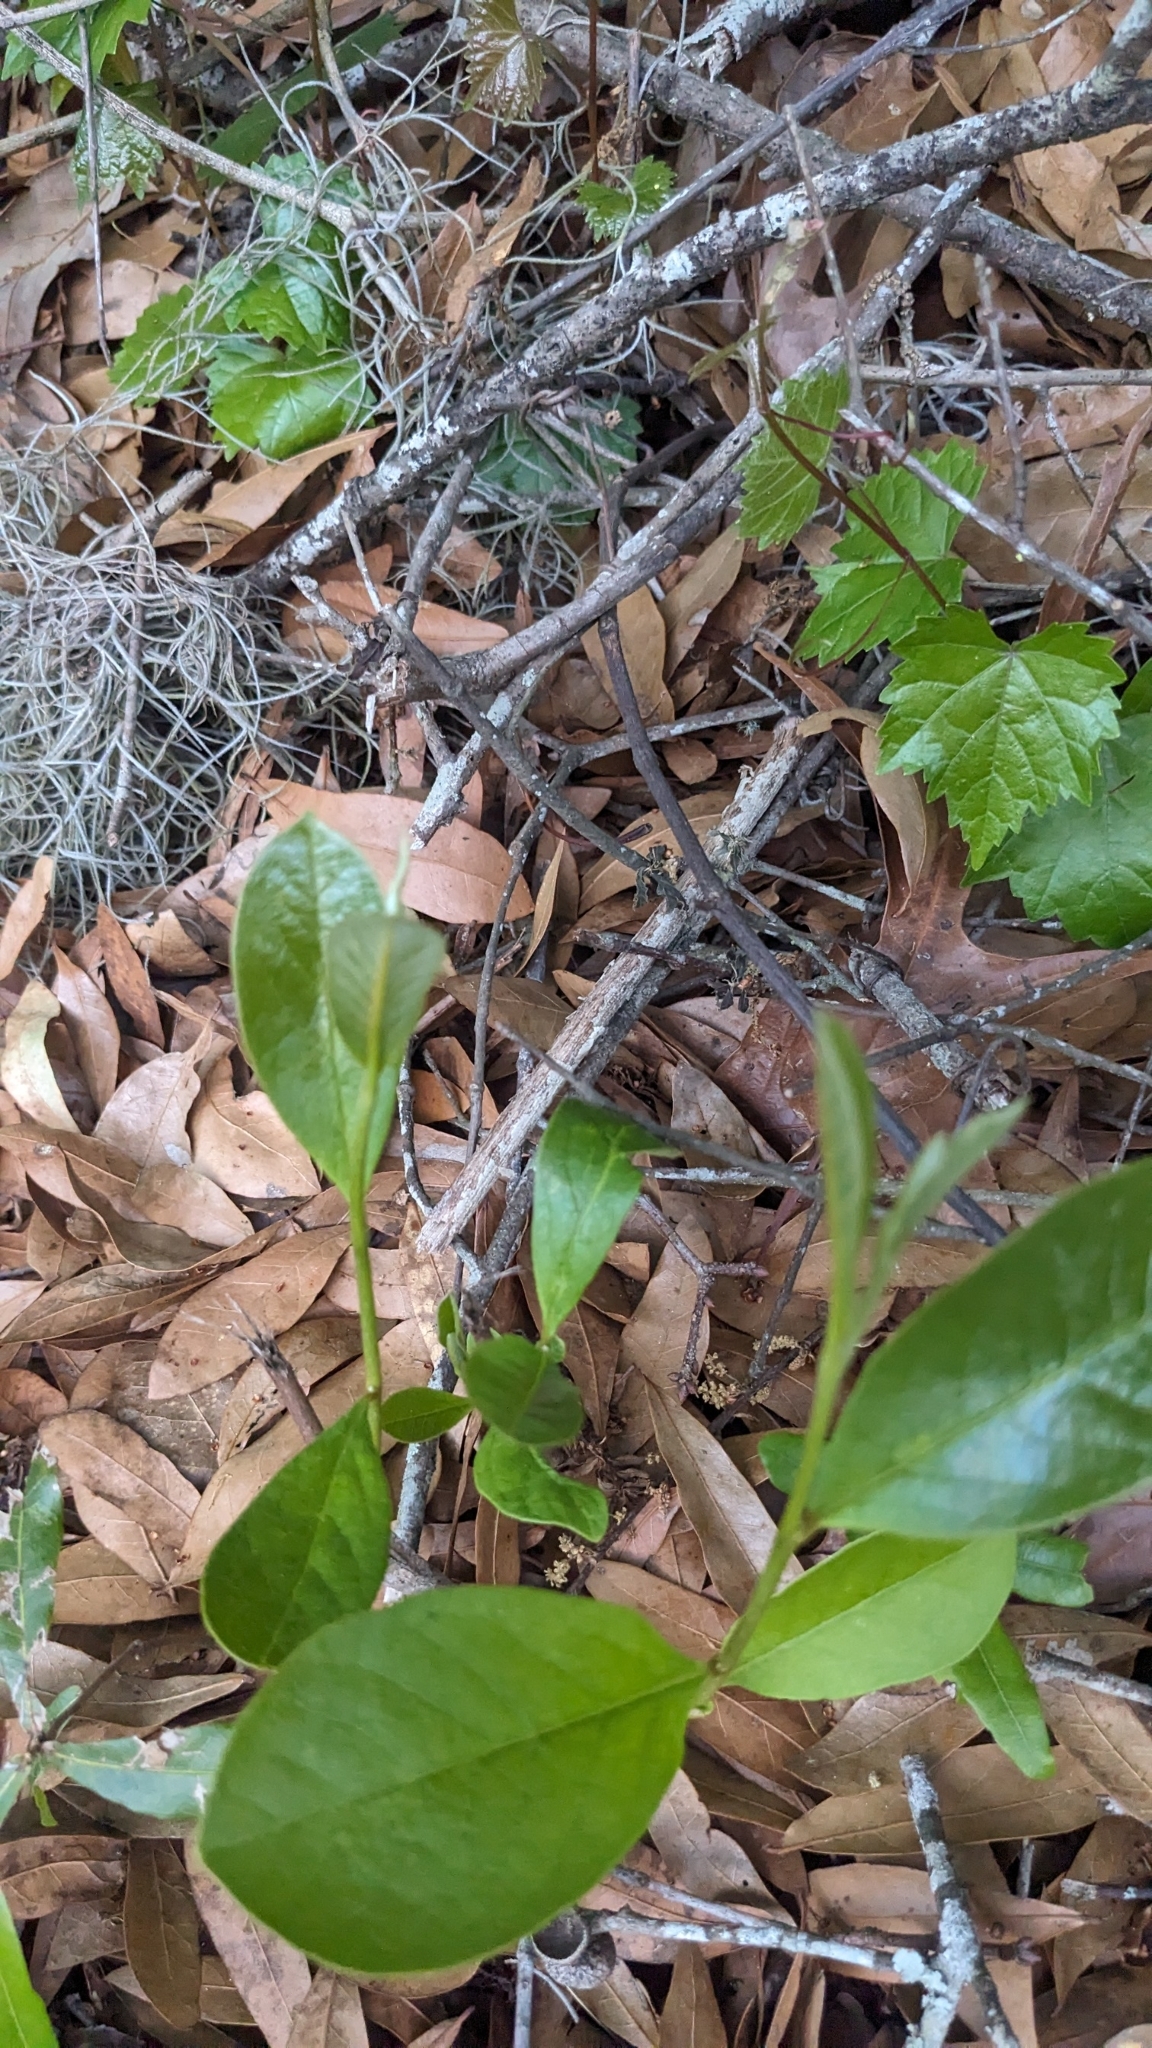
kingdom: Plantae
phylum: Tracheophyta
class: Magnoliopsida
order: Magnoliales
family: Annonaceae
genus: Asimina
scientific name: Asimina parviflora
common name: Dwarf pawpaw
